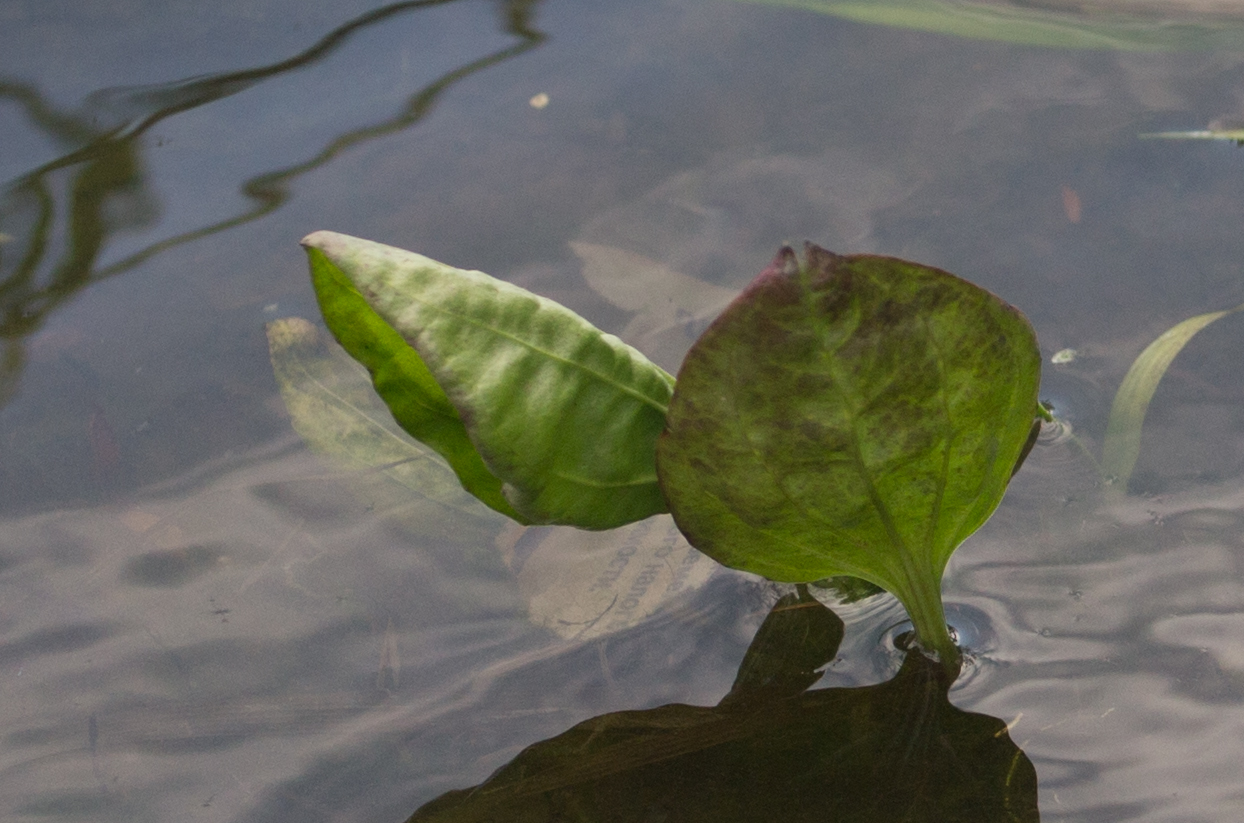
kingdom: Plantae
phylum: Tracheophyta
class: Liliopsida
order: Alismatales
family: Alismataceae
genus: Alisma
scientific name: Alisma plantago-aquatica
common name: Water-plantain
